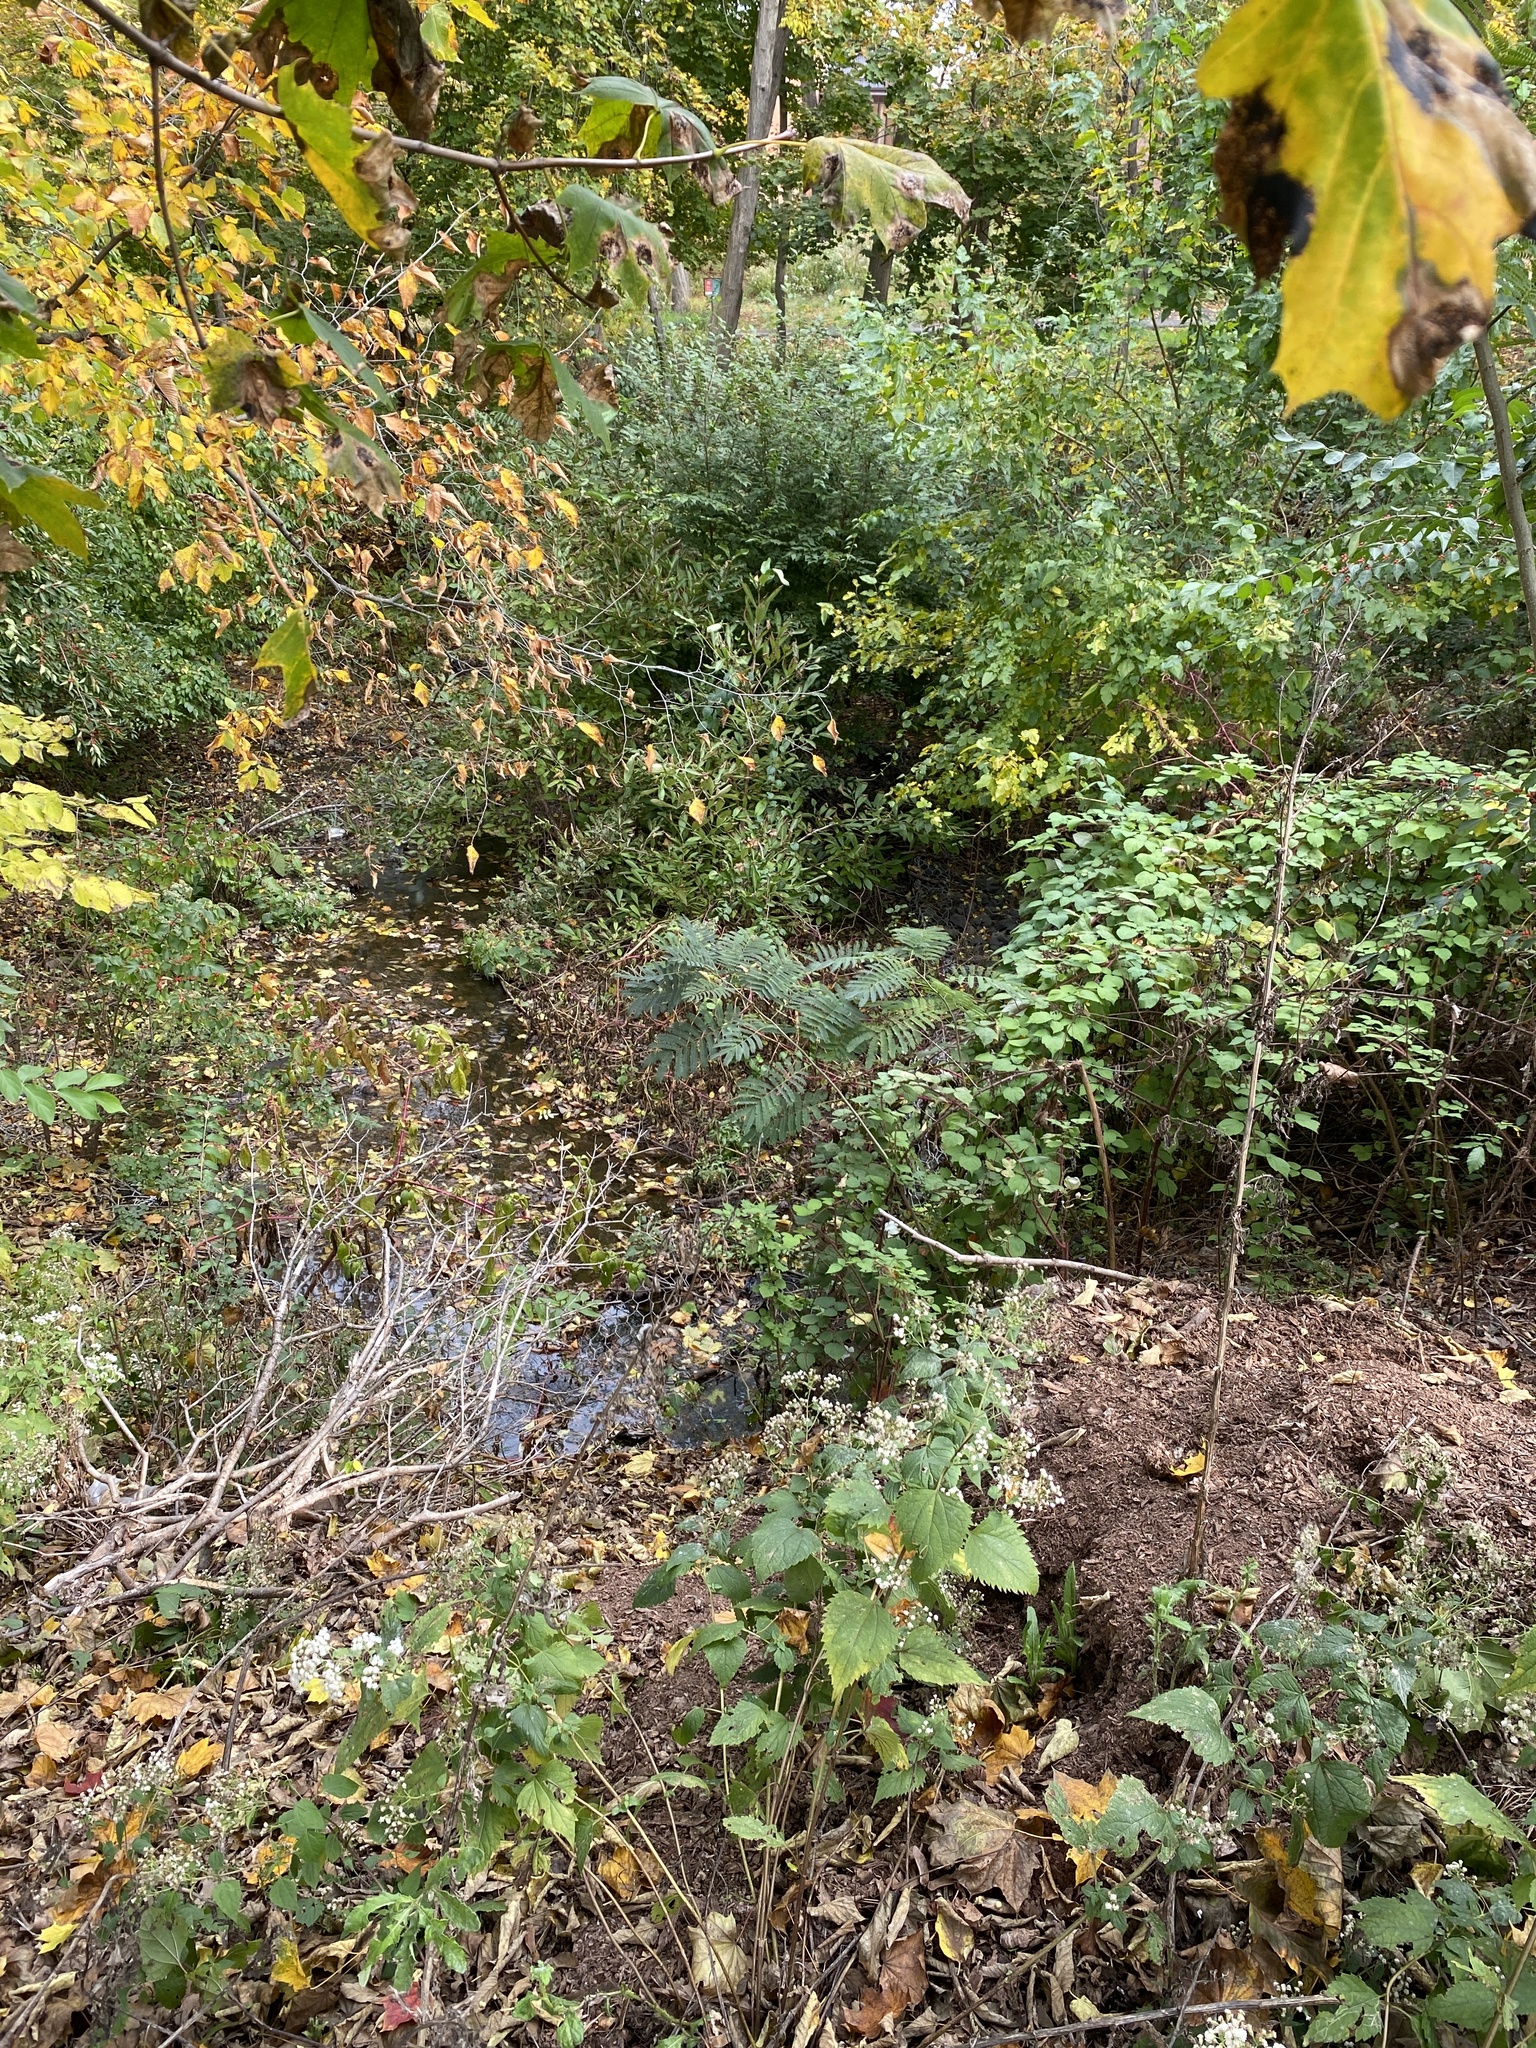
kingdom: Plantae
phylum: Tracheophyta
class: Magnoliopsida
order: Fabales
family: Fabaceae
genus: Albizia
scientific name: Albizia julibrissin
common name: Silktree
